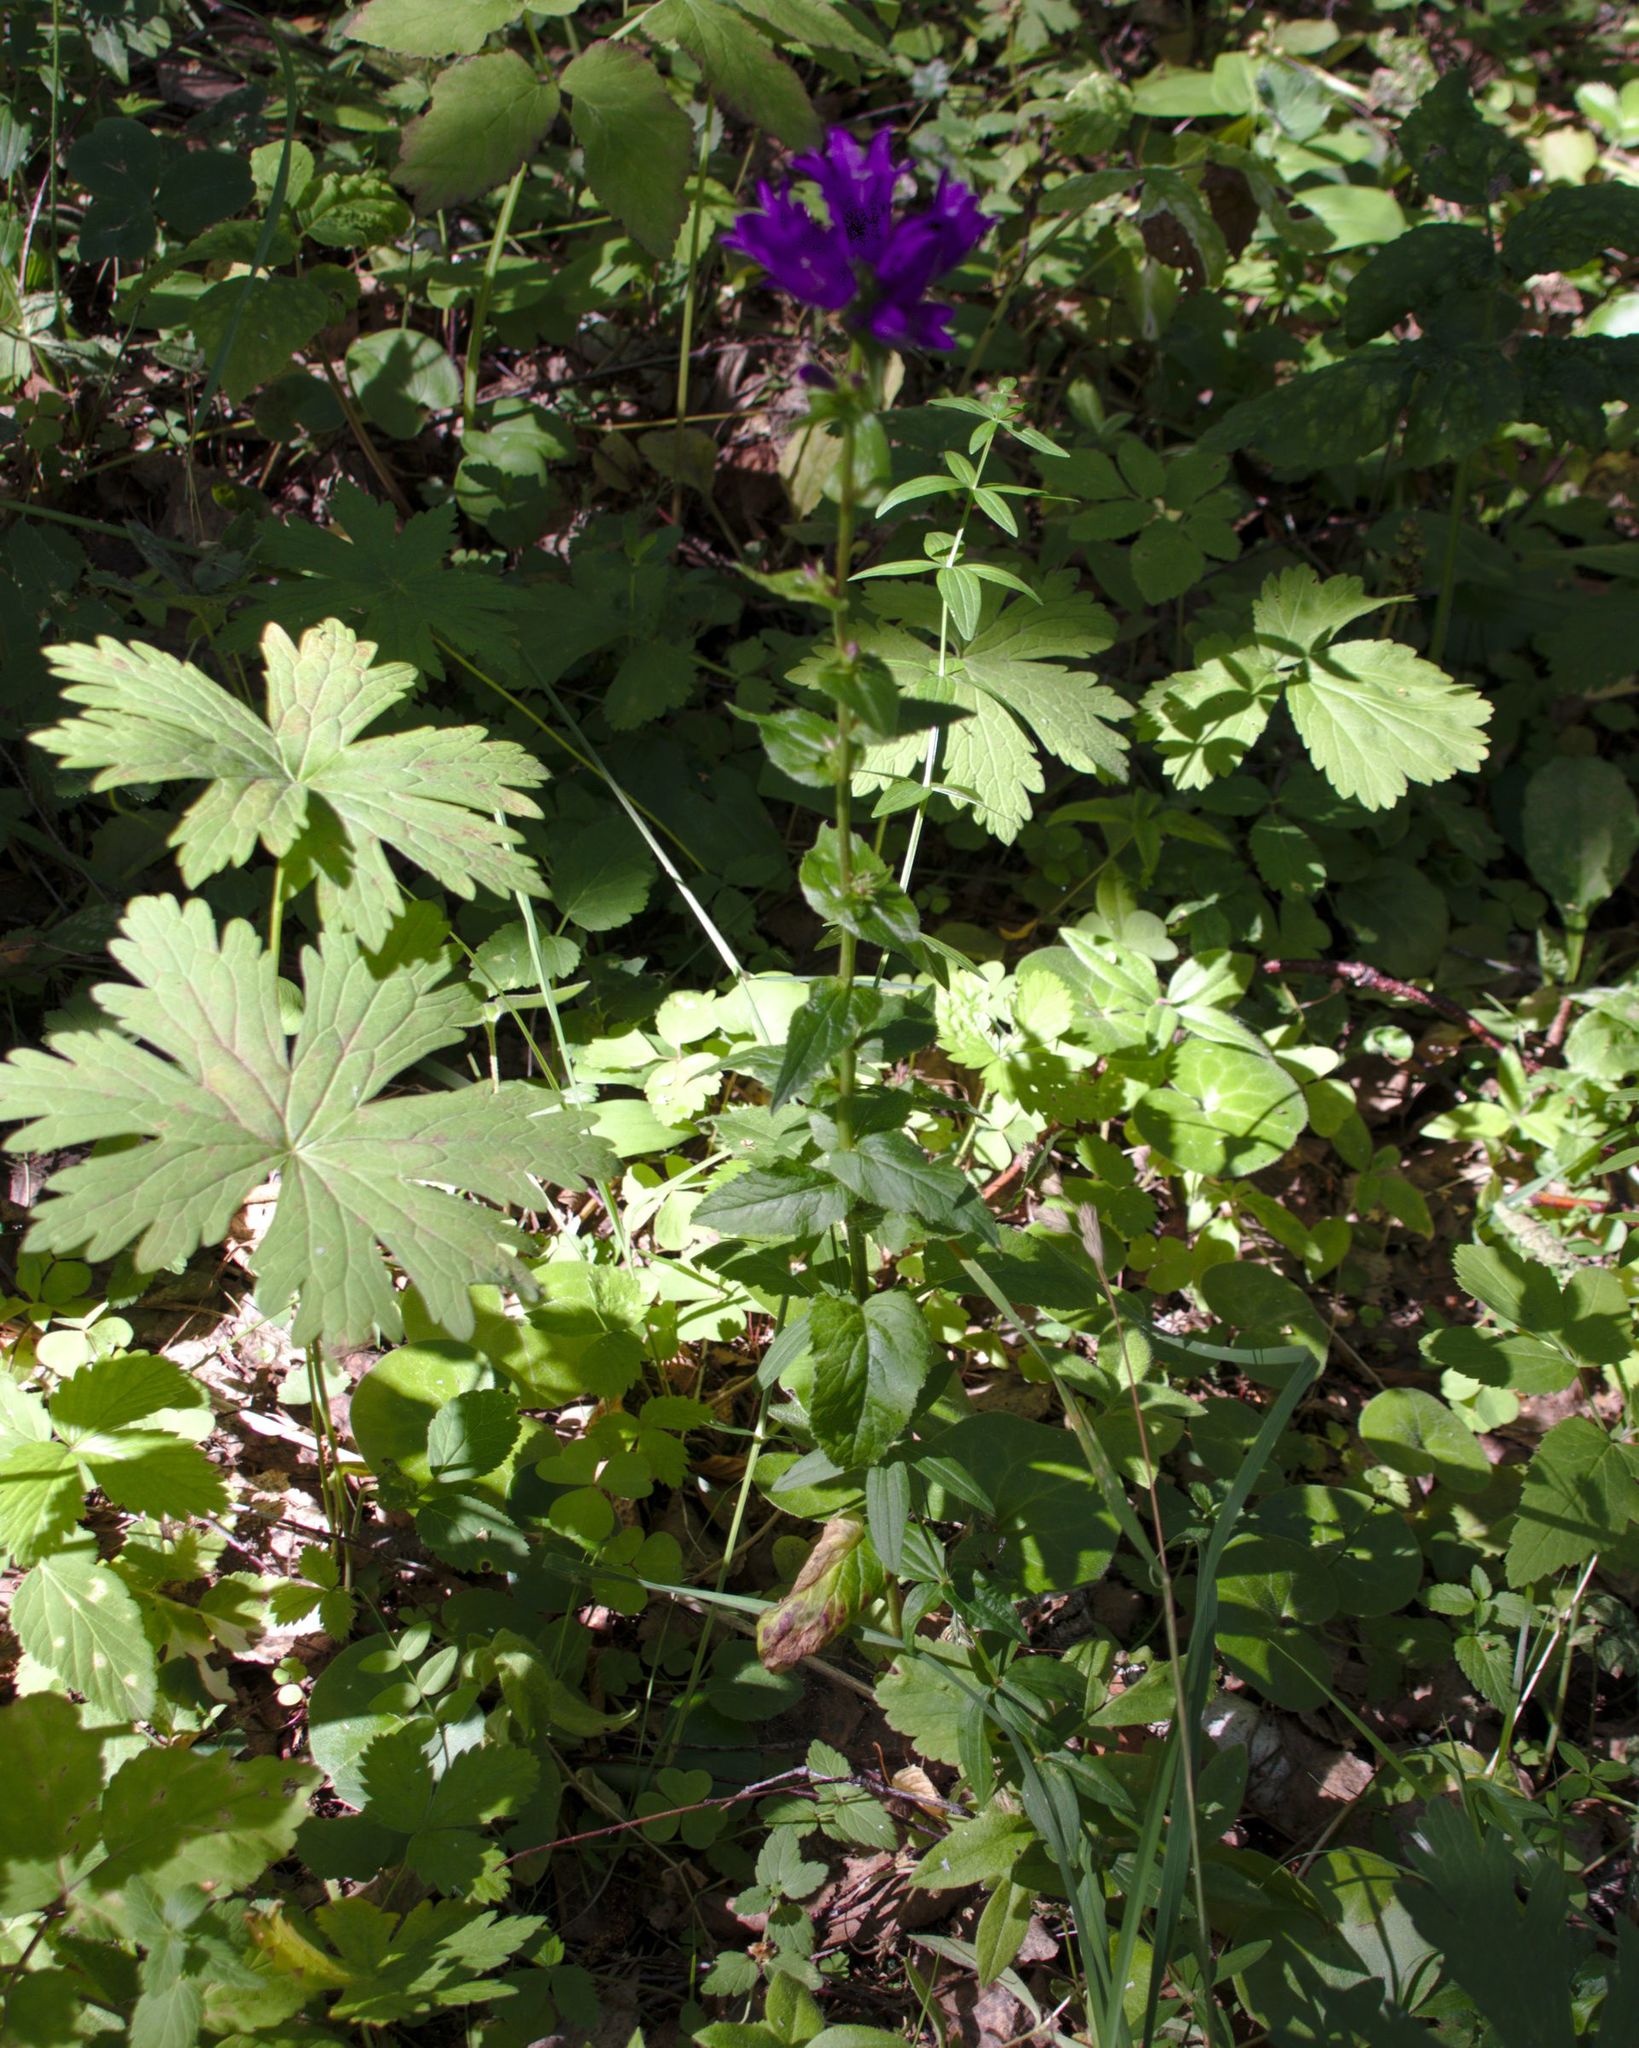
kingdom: Plantae
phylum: Tracheophyta
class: Magnoliopsida
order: Asterales
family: Campanulaceae
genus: Campanula
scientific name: Campanula glomerata
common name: Clustered bellflower
